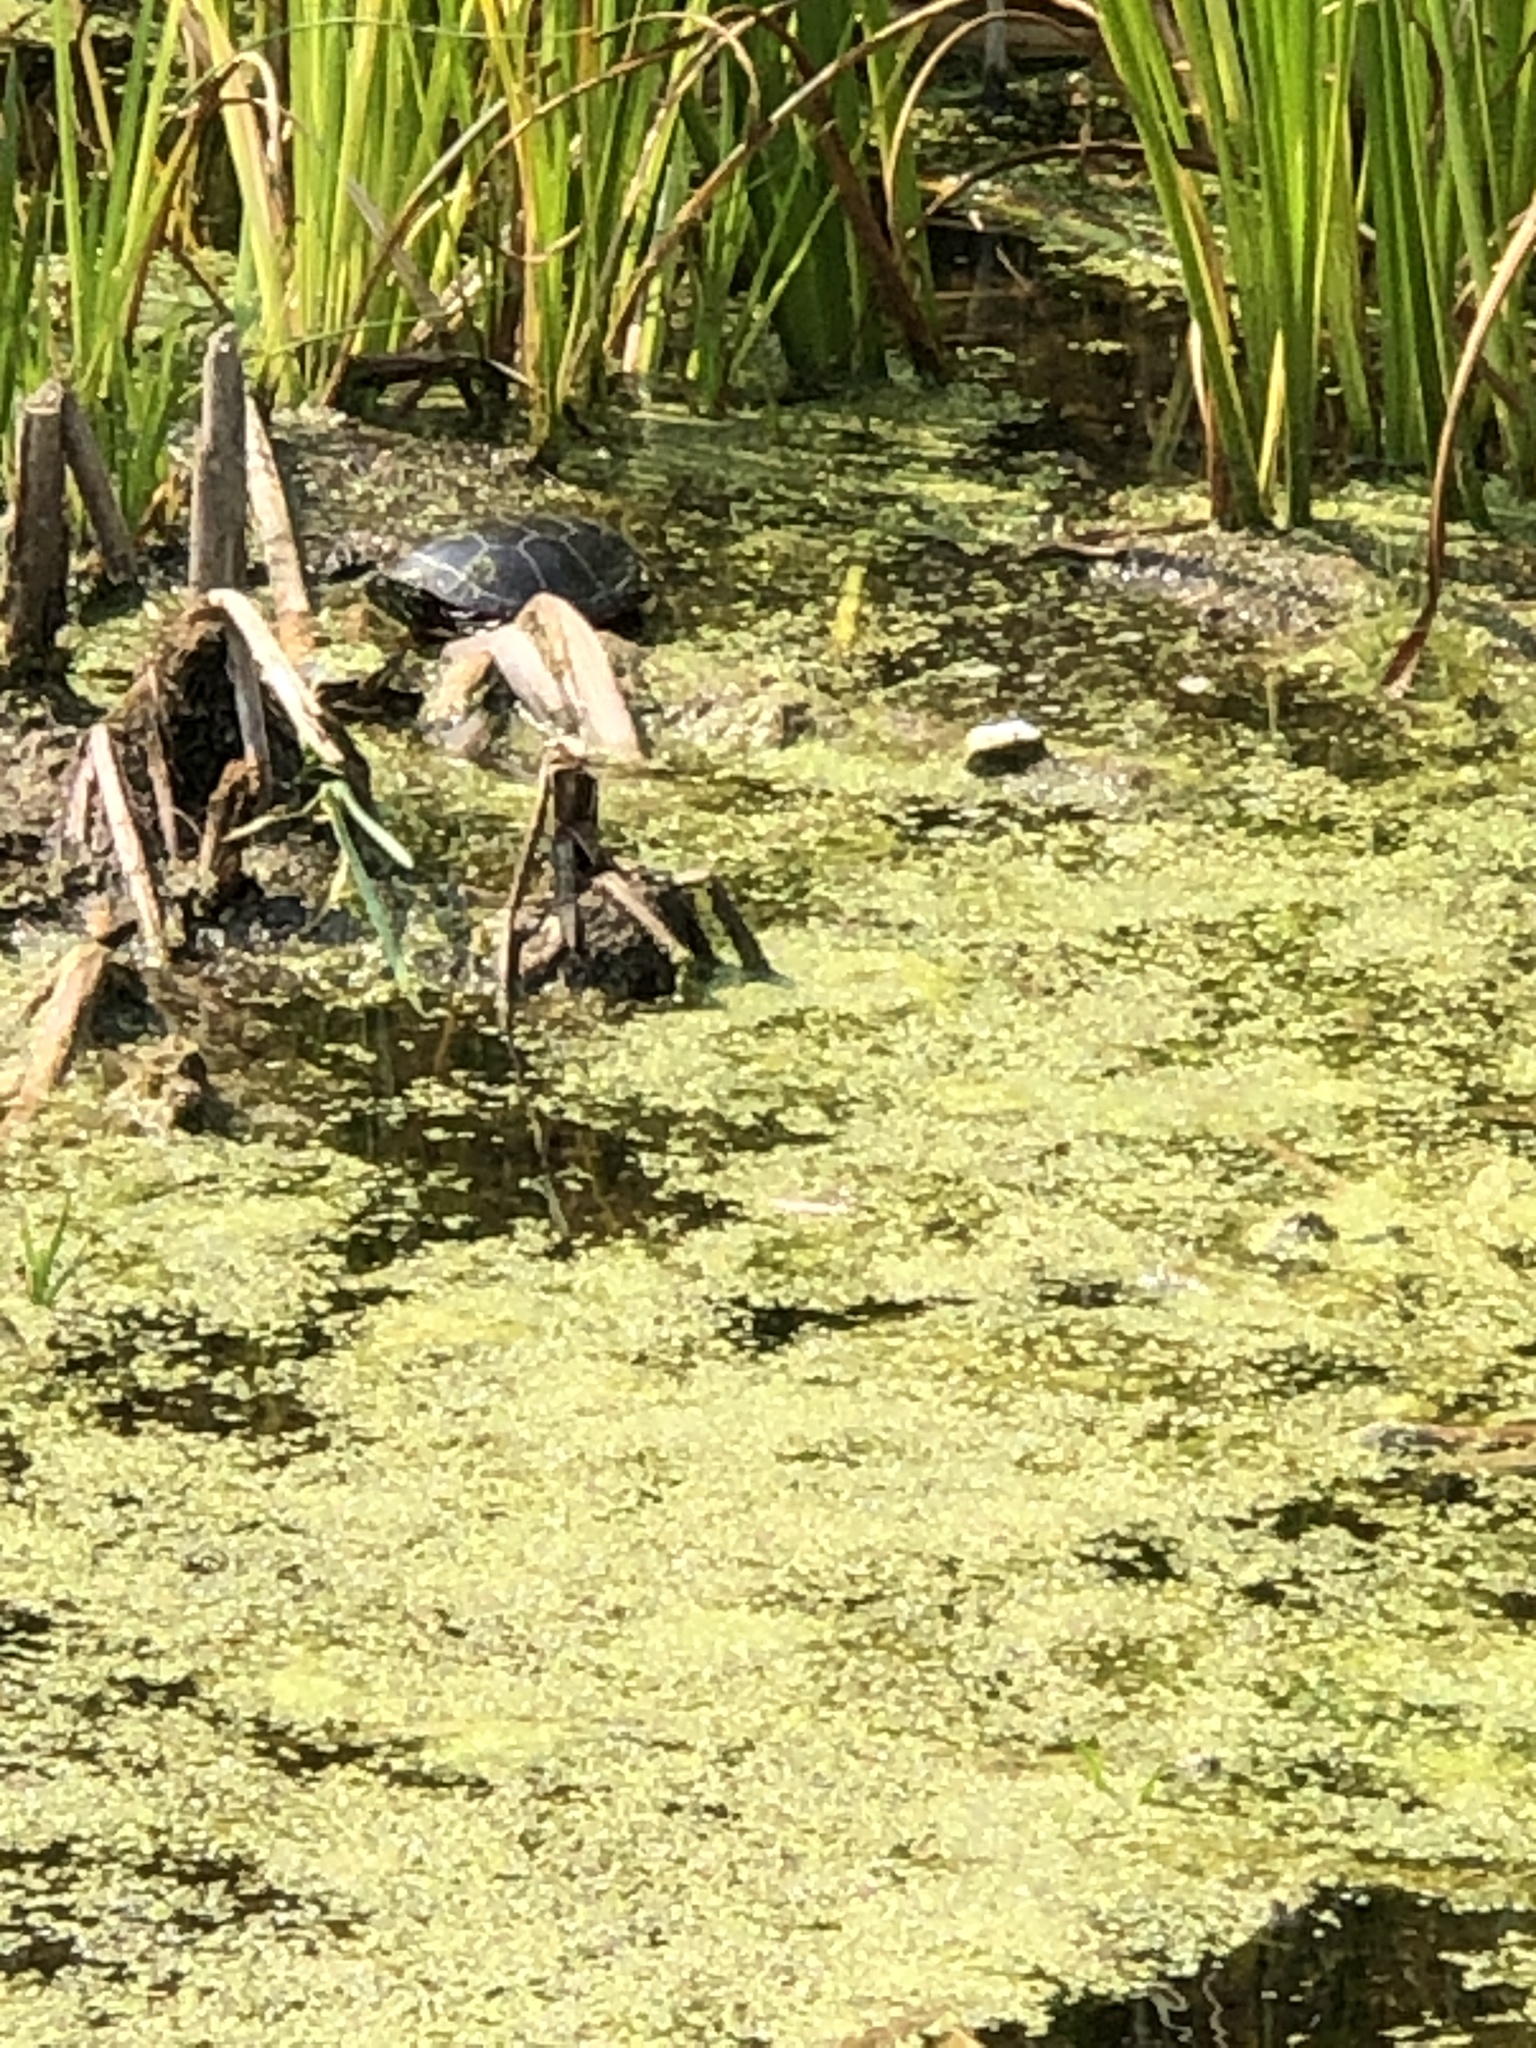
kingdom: Animalia
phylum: Chordata
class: Testudines
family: Emydidae
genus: Chrysemys
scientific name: Chrysemys picta
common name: Painted turtle
